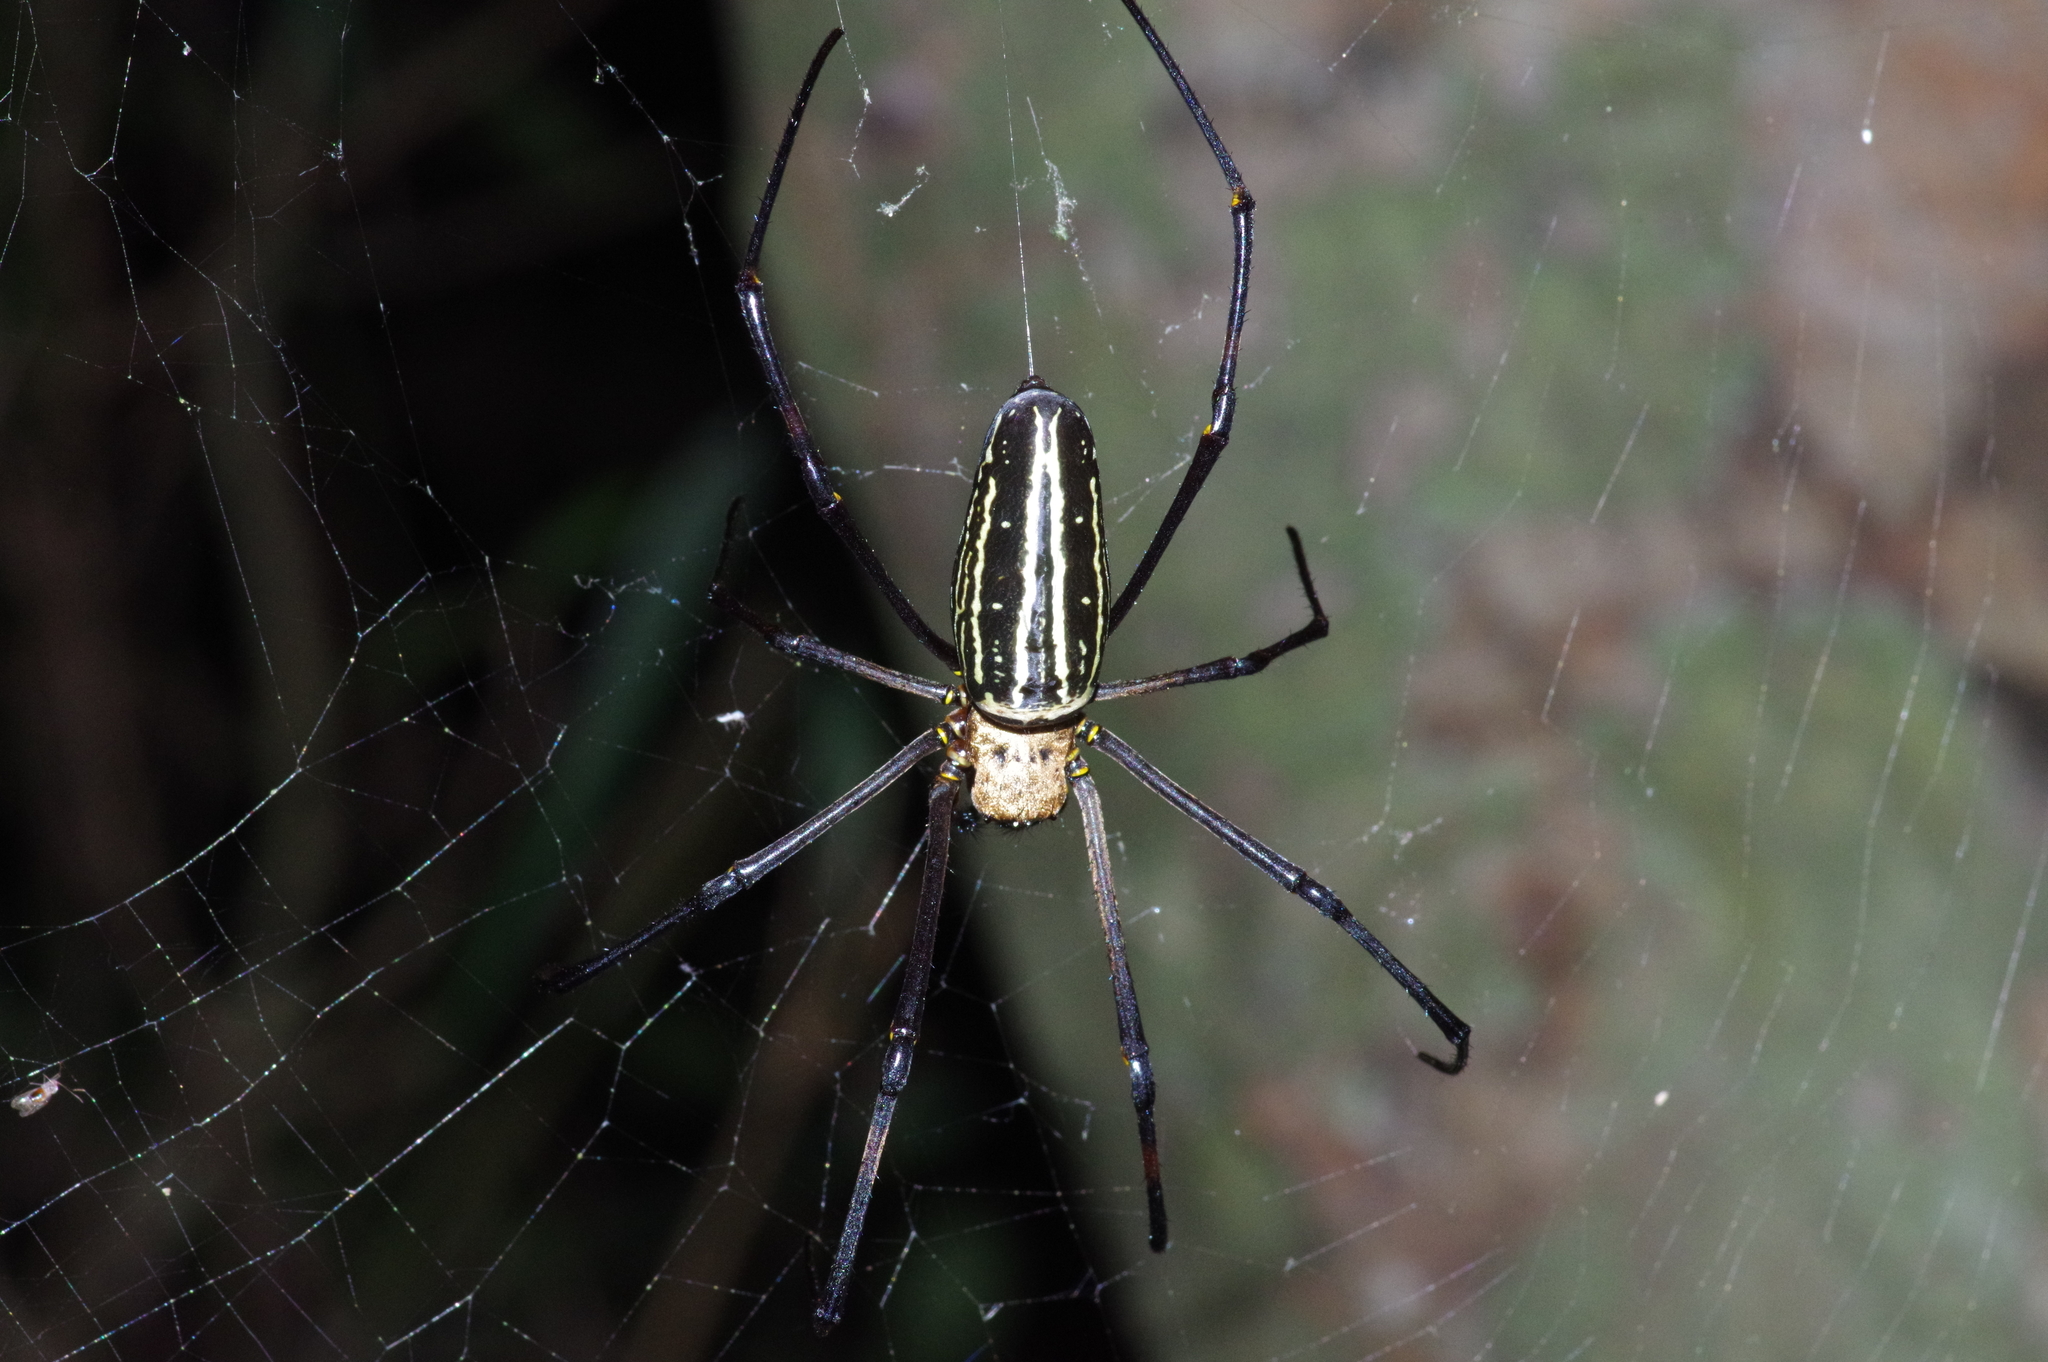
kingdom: Animalia
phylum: Arthropoda
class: Arachnida
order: Araneae
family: Araneidae
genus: Nephila
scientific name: Nephila pilipes
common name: Giant golden orb weaver
